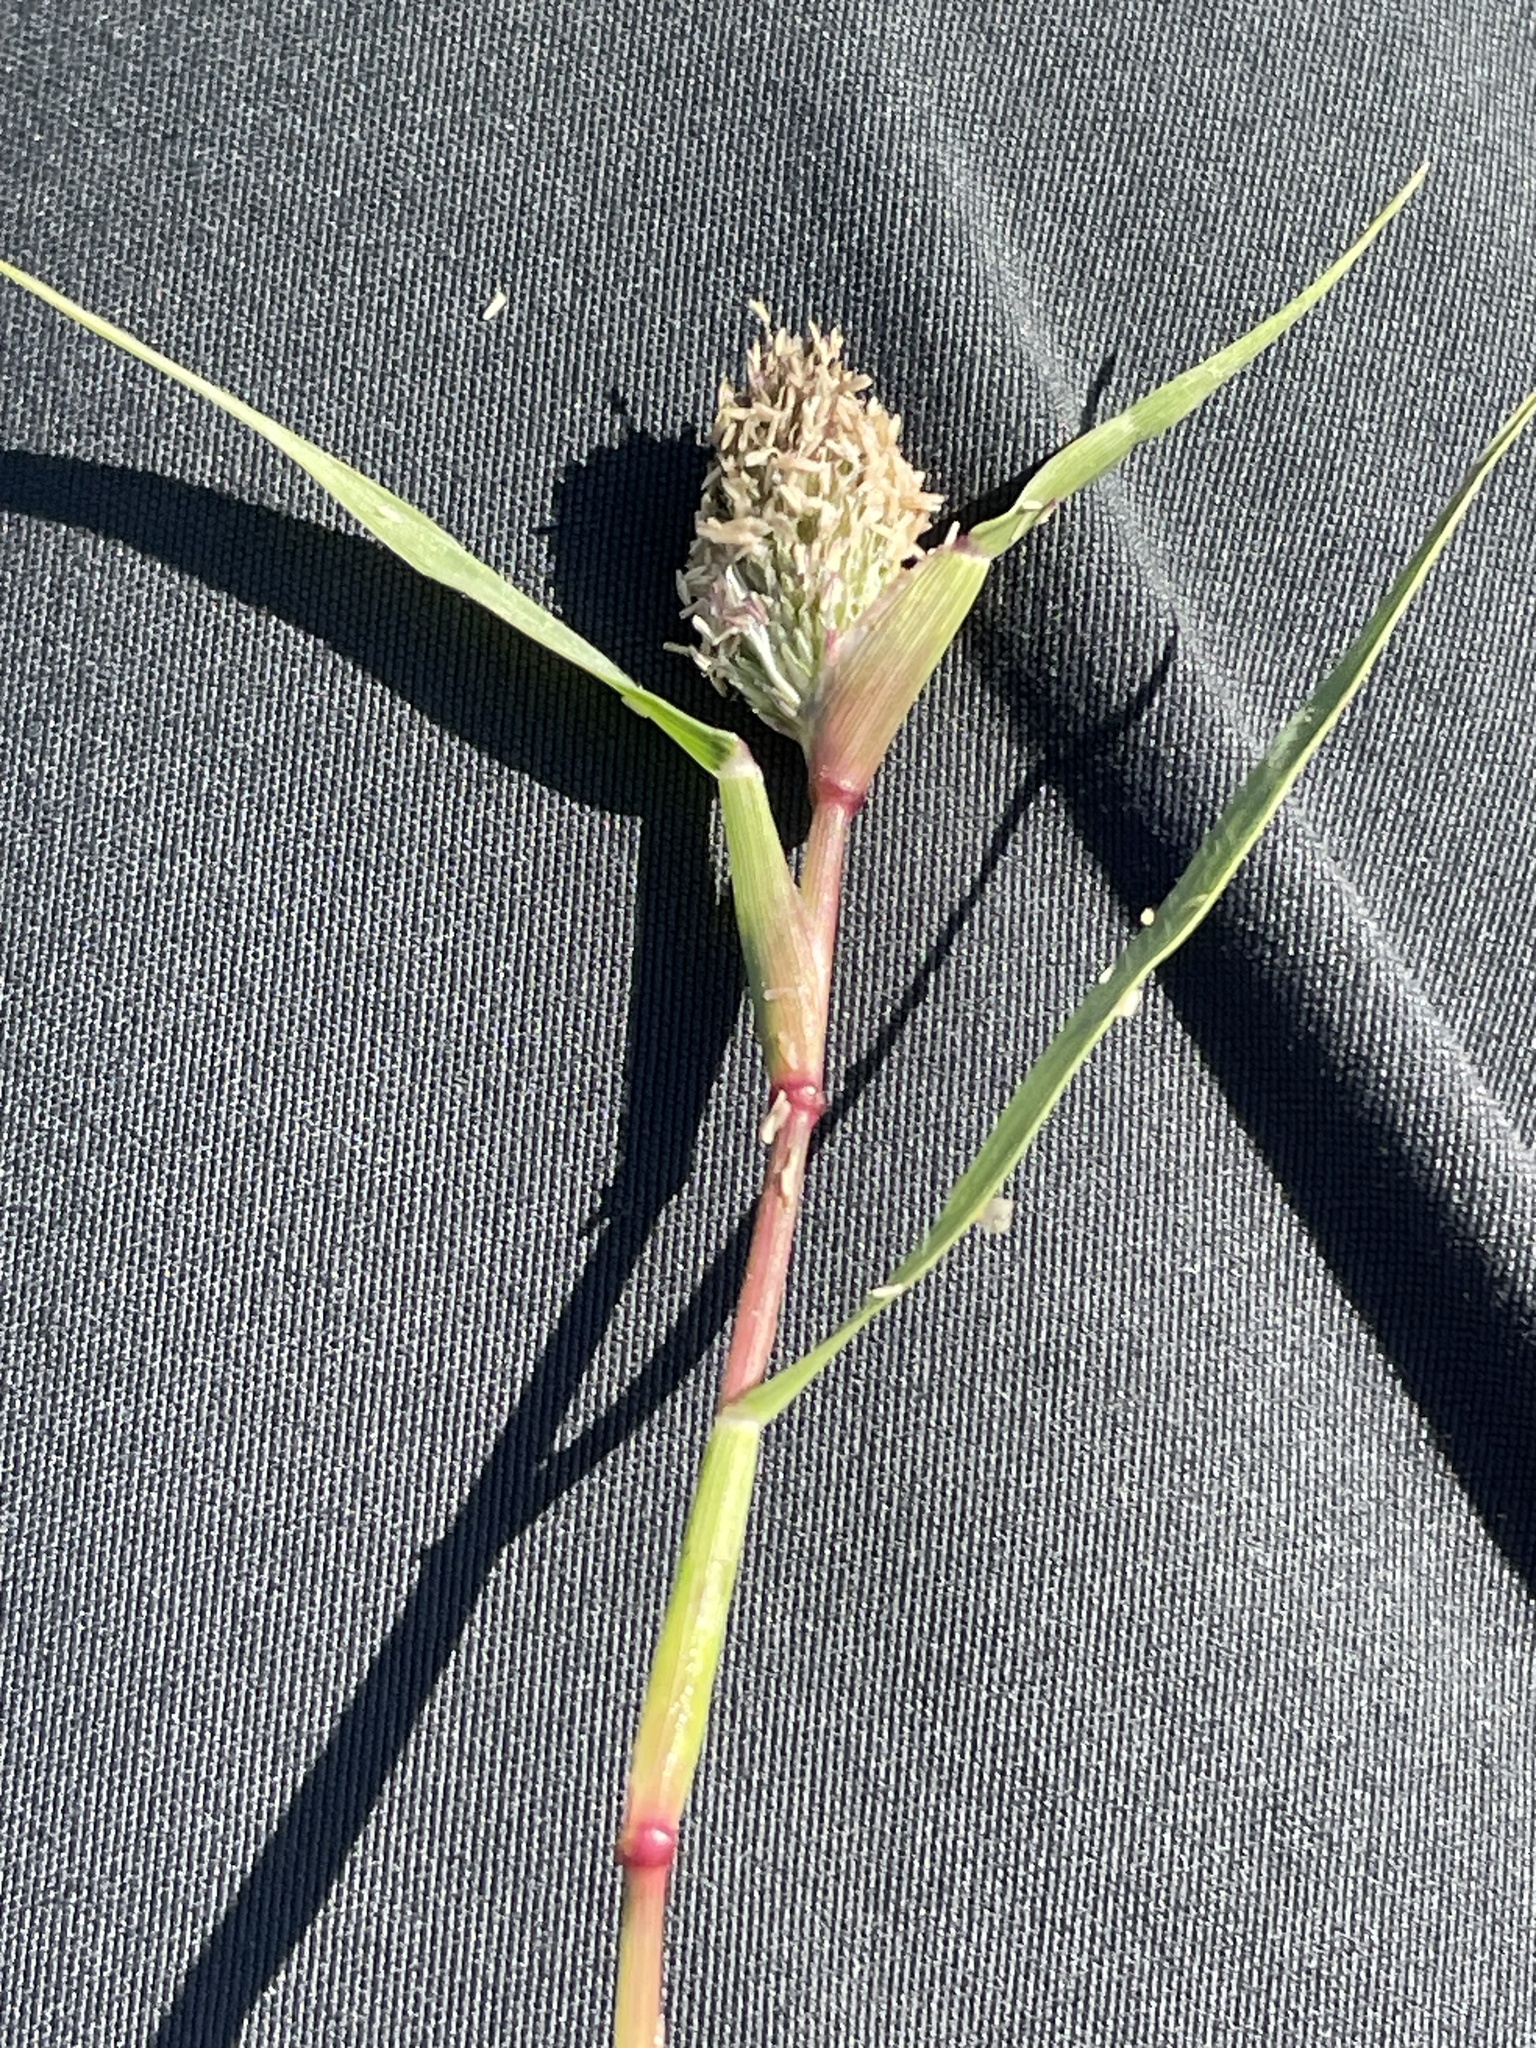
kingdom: Plantae
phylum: Tracheophyta
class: Liliopsida
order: Poales
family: Poaceae
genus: Sporobolus
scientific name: Sporobolus schoenoides
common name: Rush-like timothy
